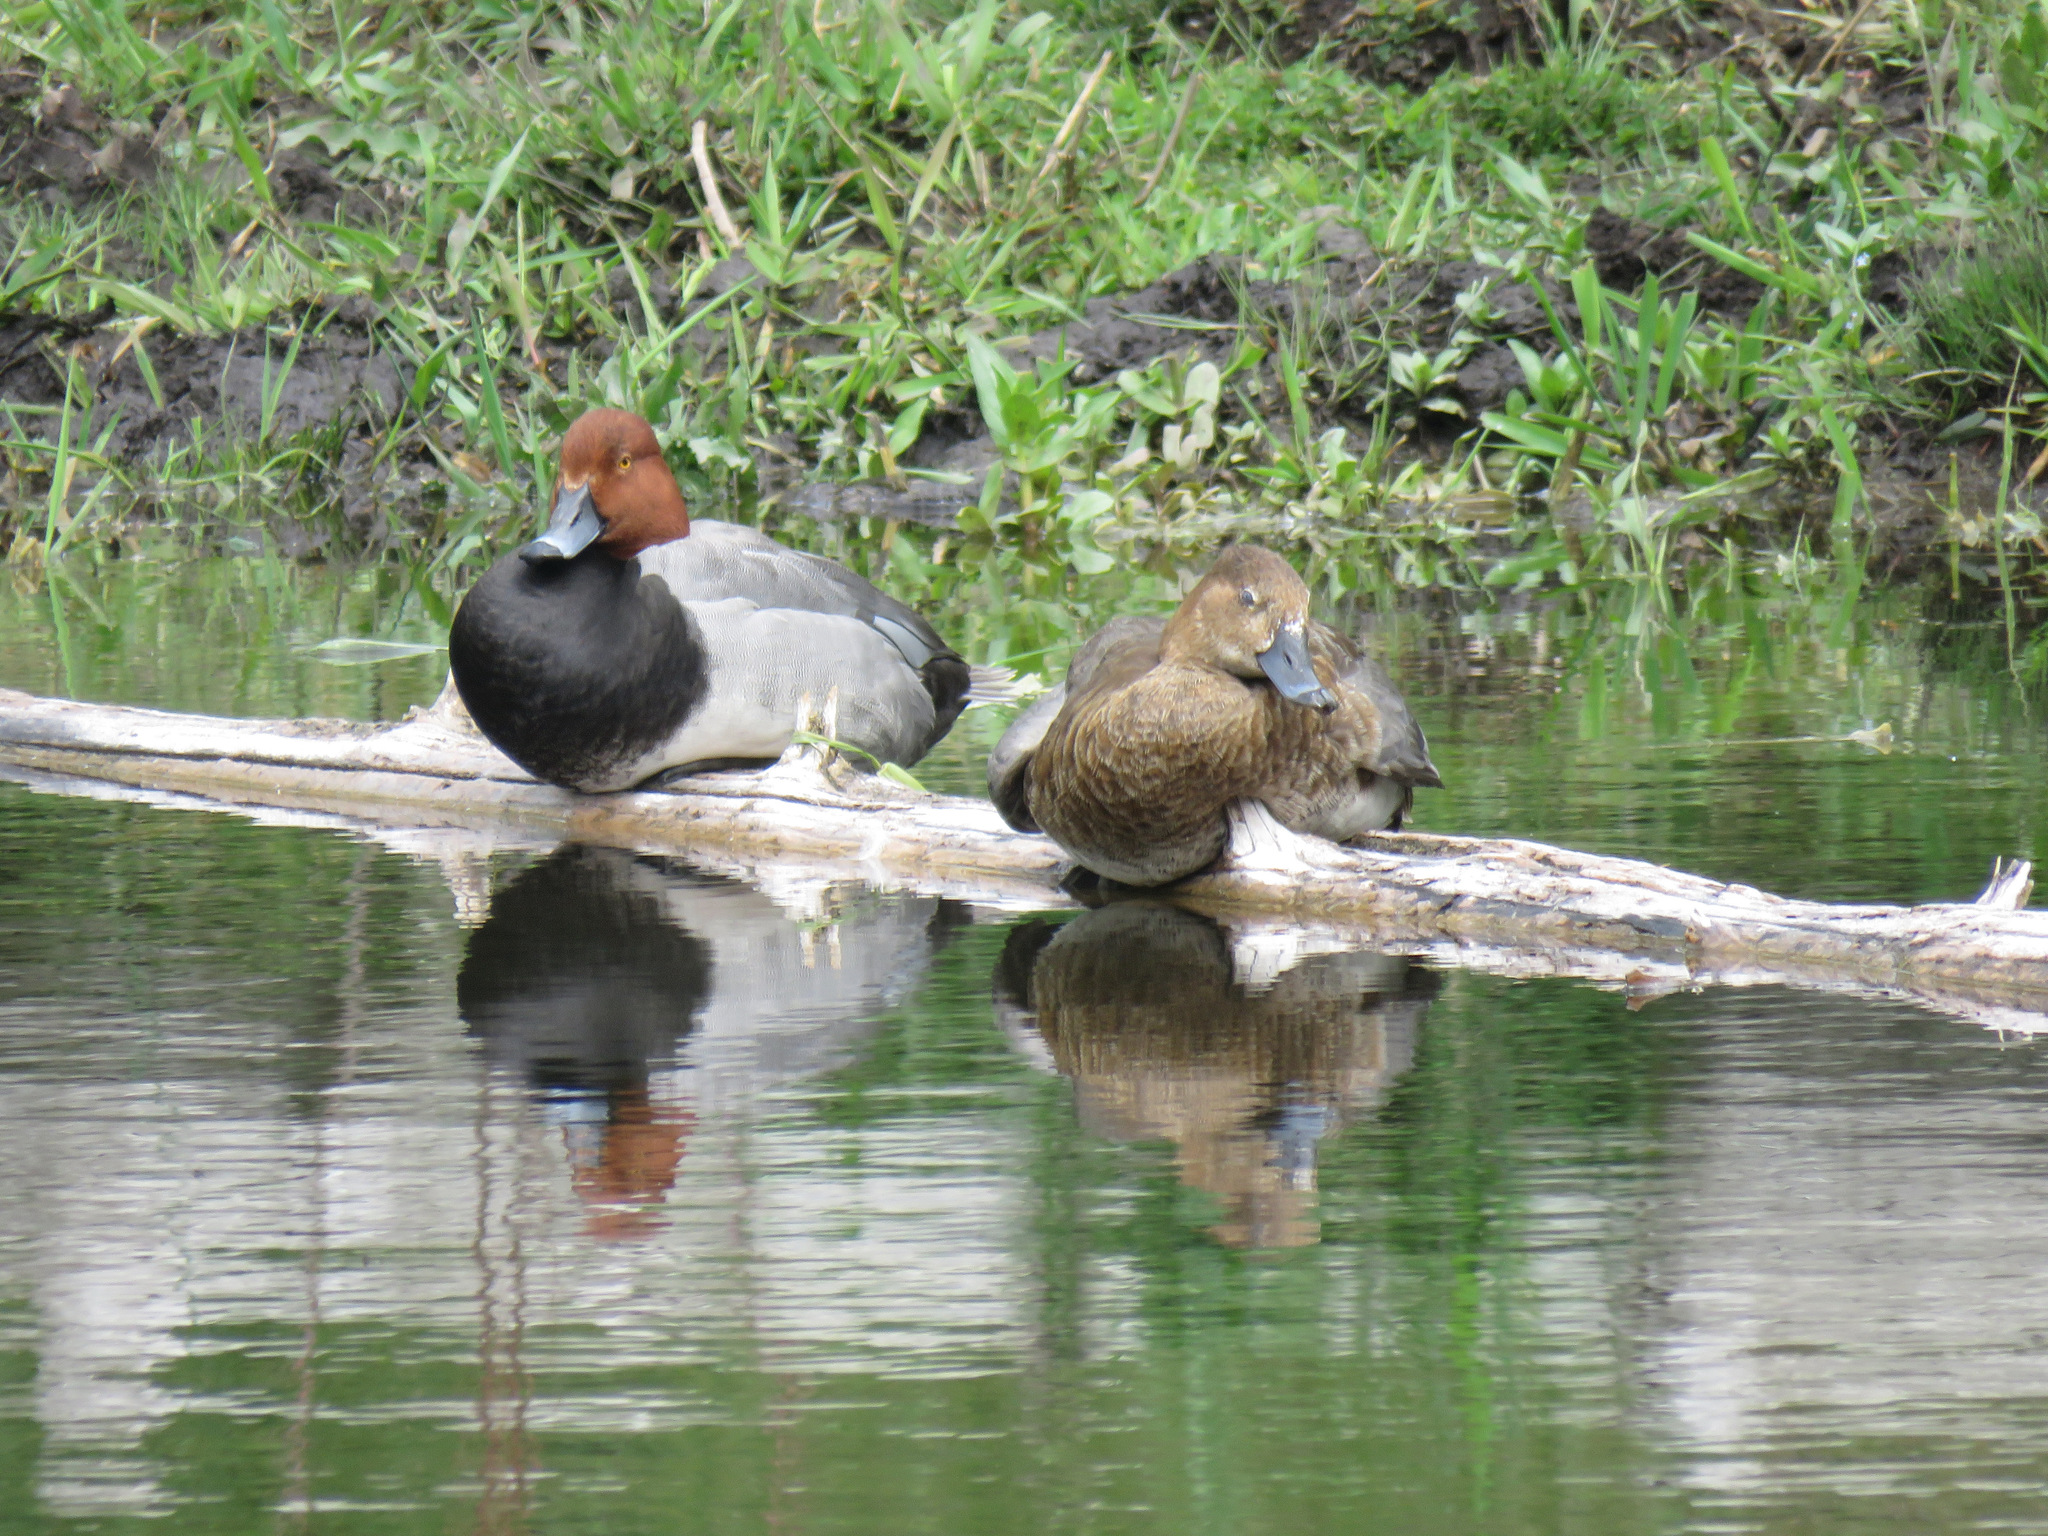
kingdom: Animalia
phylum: Chordata
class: Aves
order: Anseriformes
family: Anatidae
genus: Aythya
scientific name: Aythya americana
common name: Redhead
